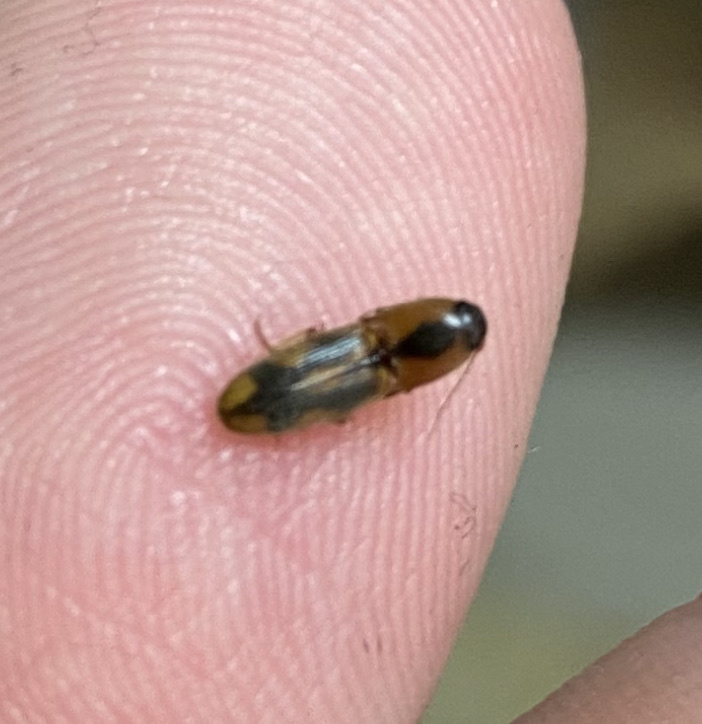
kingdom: Animalia
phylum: Arthropoda
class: Insecta
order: Coleoptera
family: Elateridae
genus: Aeolus
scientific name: Aeolus mellillus
